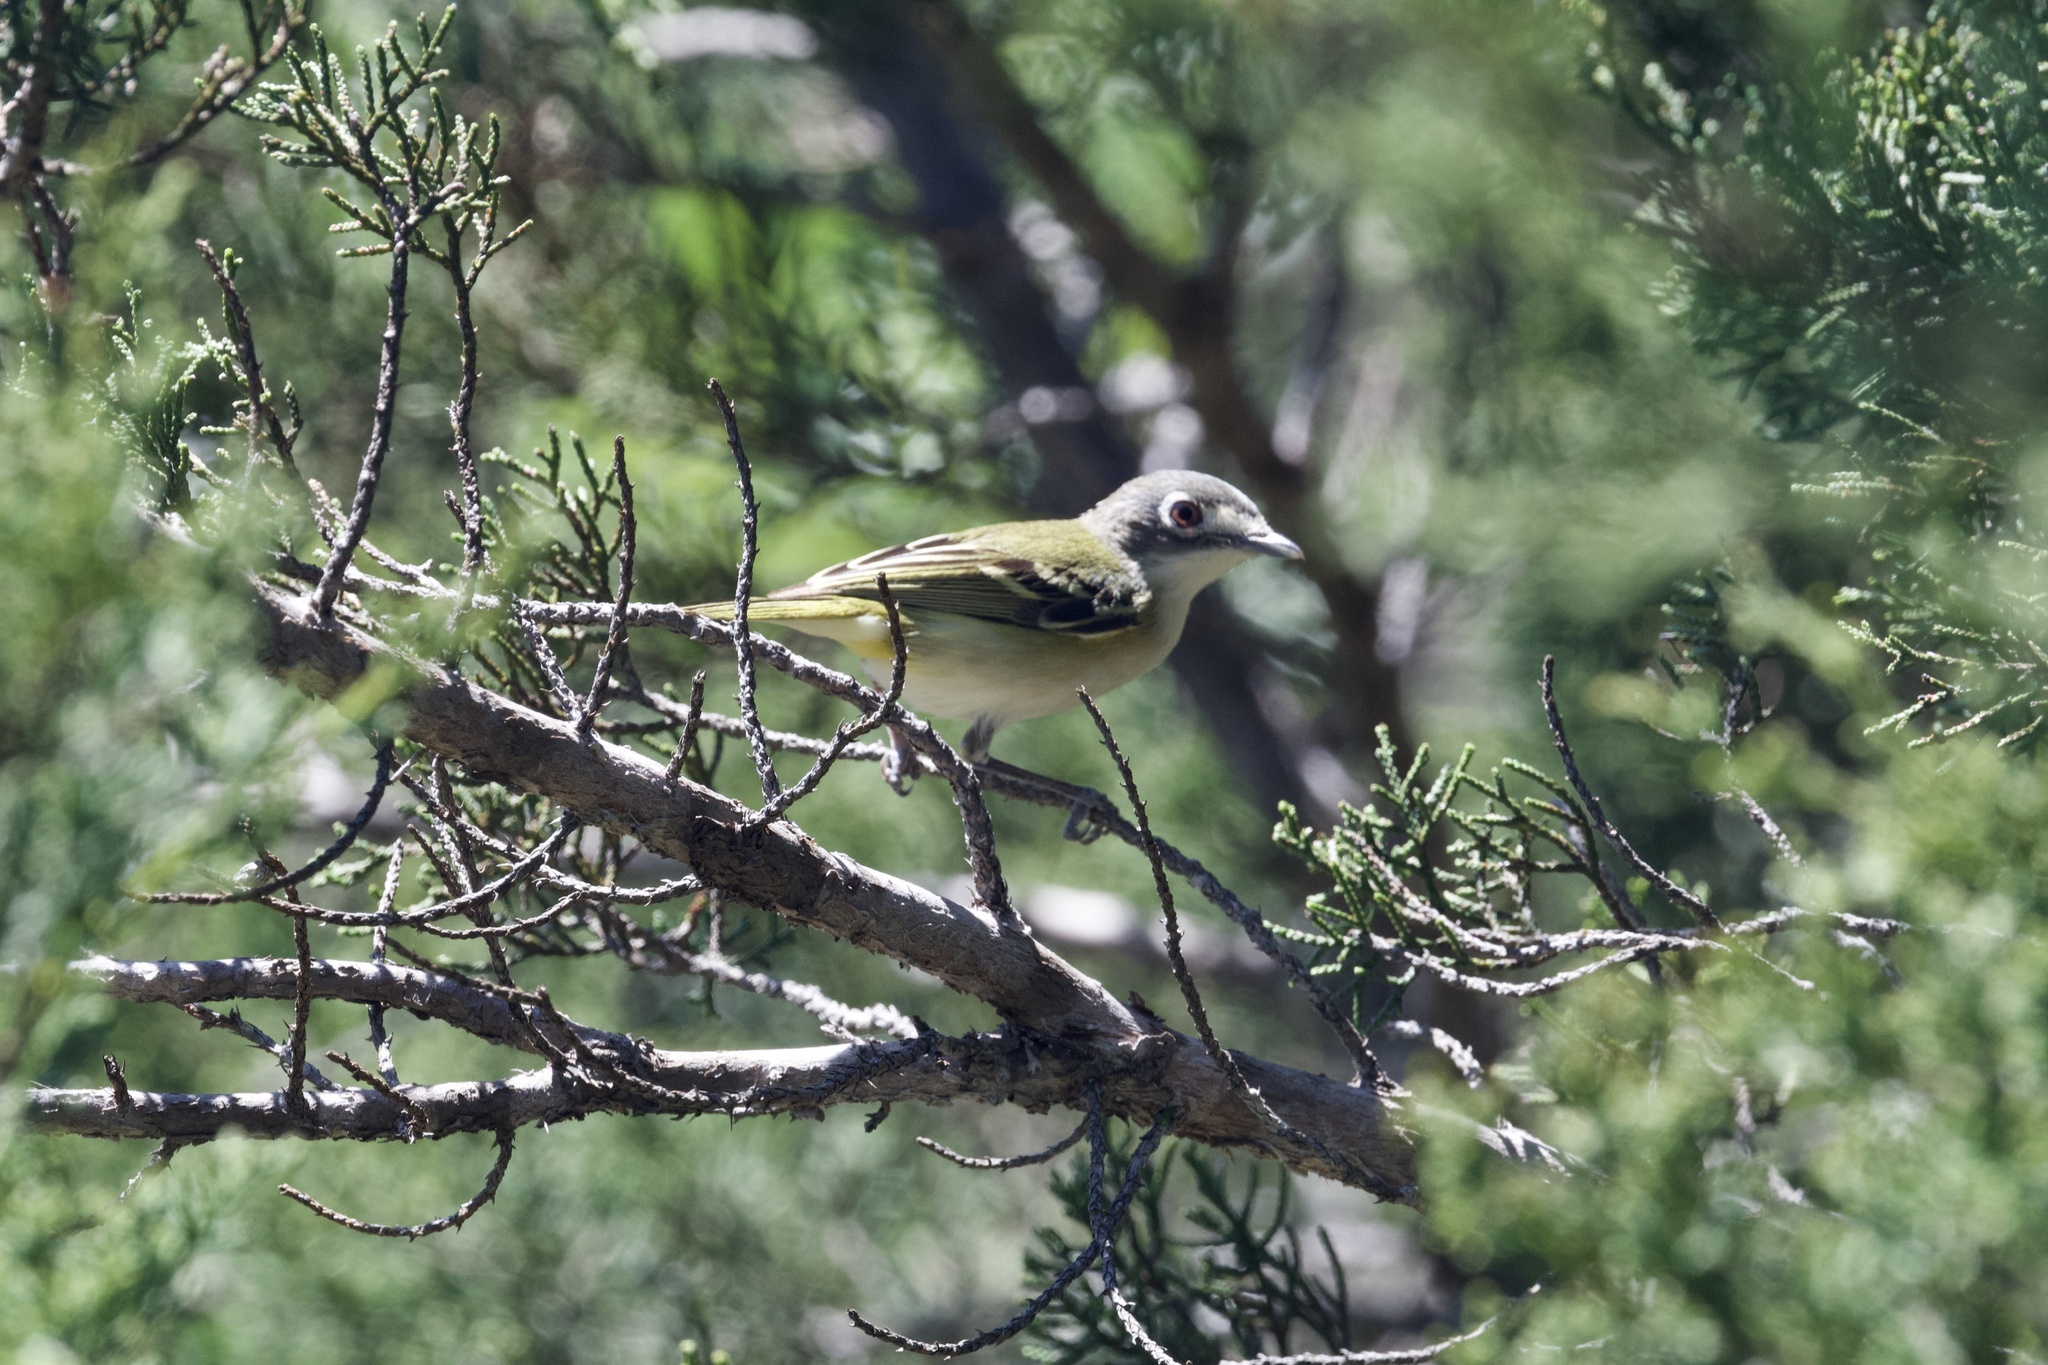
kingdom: Animalia
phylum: Chordata
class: Aves
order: Passeriformes
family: Vireonidae
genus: Vireo
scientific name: Vireo atricapilla
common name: Black-capped vireo
